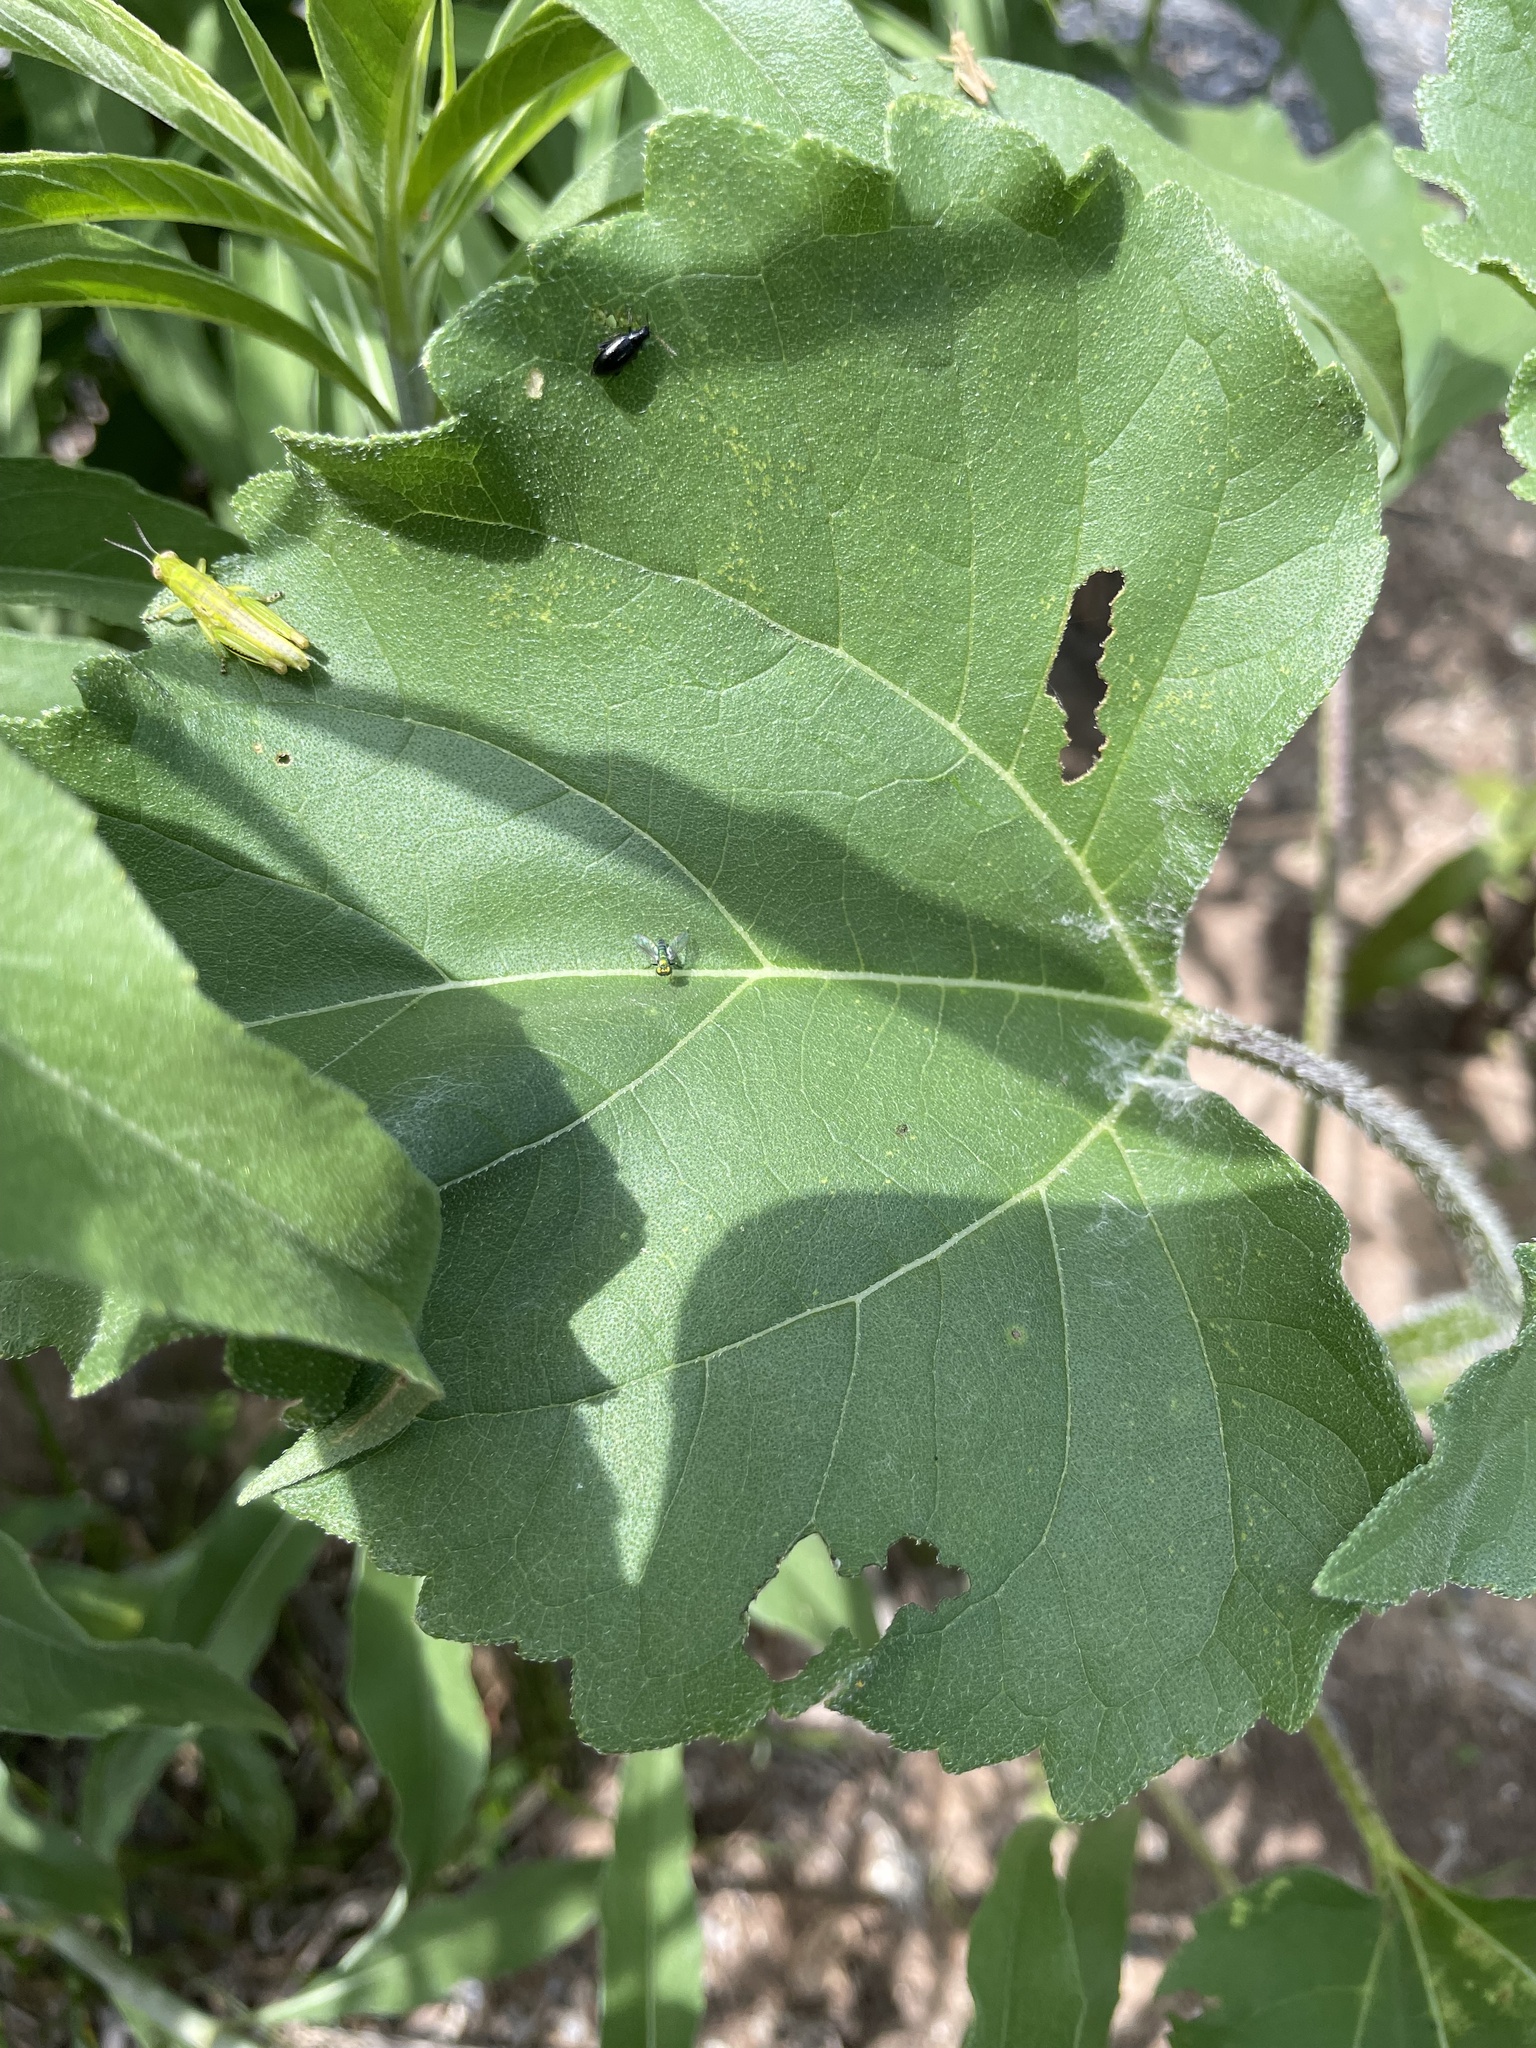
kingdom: Animalia
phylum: Arthropoda
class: Insecta
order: Diptera
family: Dolichopodidae
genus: Condylostylus
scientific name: Condylostylus longicornis
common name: Long-legged fly
